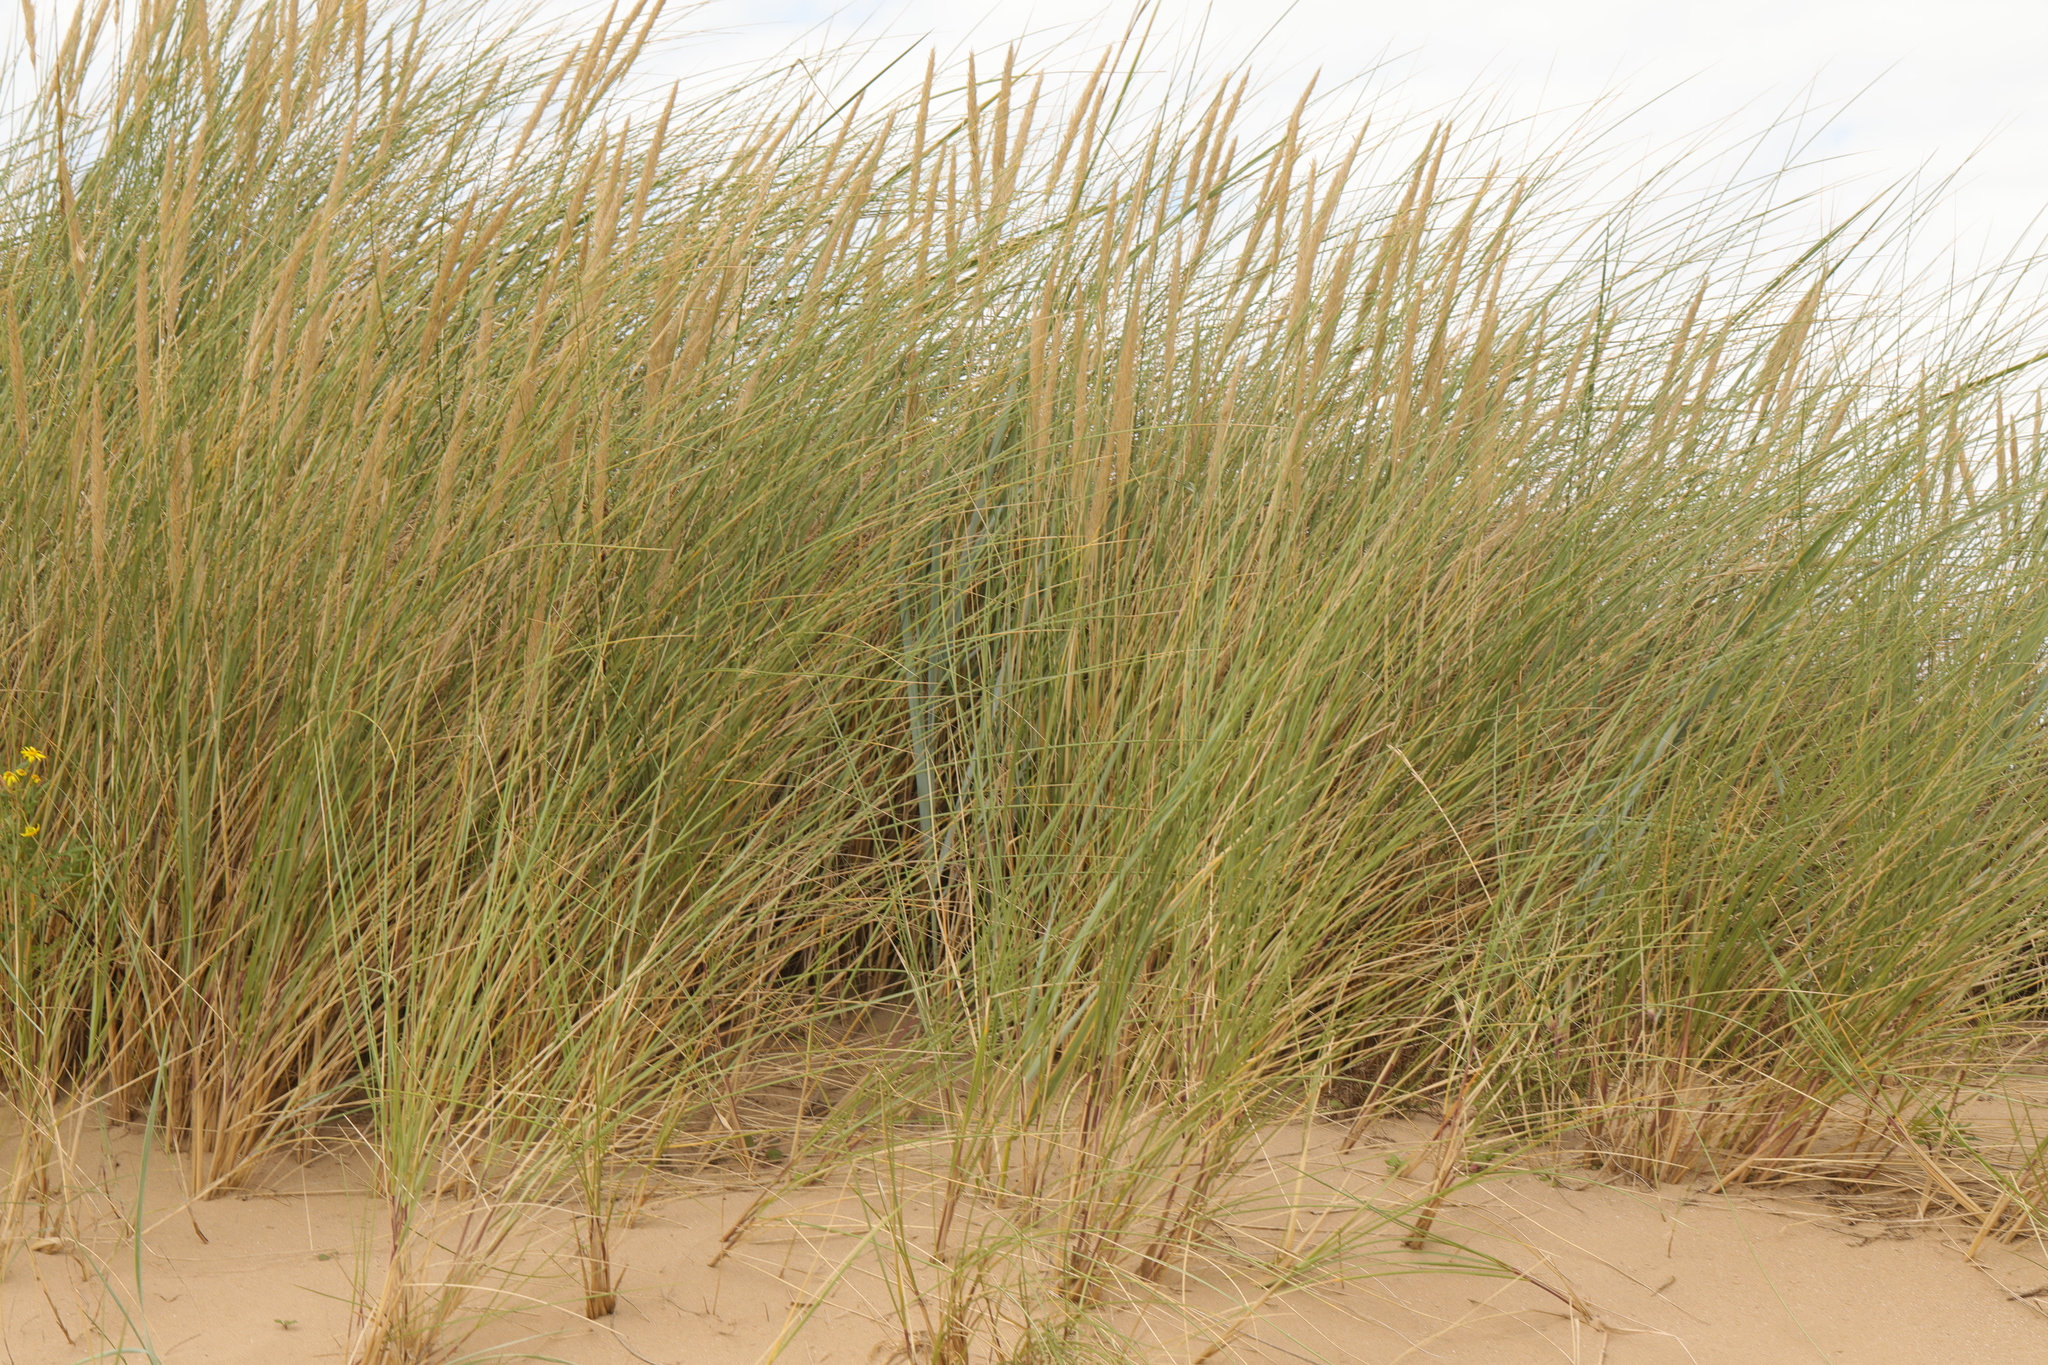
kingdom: Plantae
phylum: Tracheophyta
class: Liliopsida
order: Poales
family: Poaceae
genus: Calamagrostis
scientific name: Calamagrostis arenaria
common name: European beachgrass
